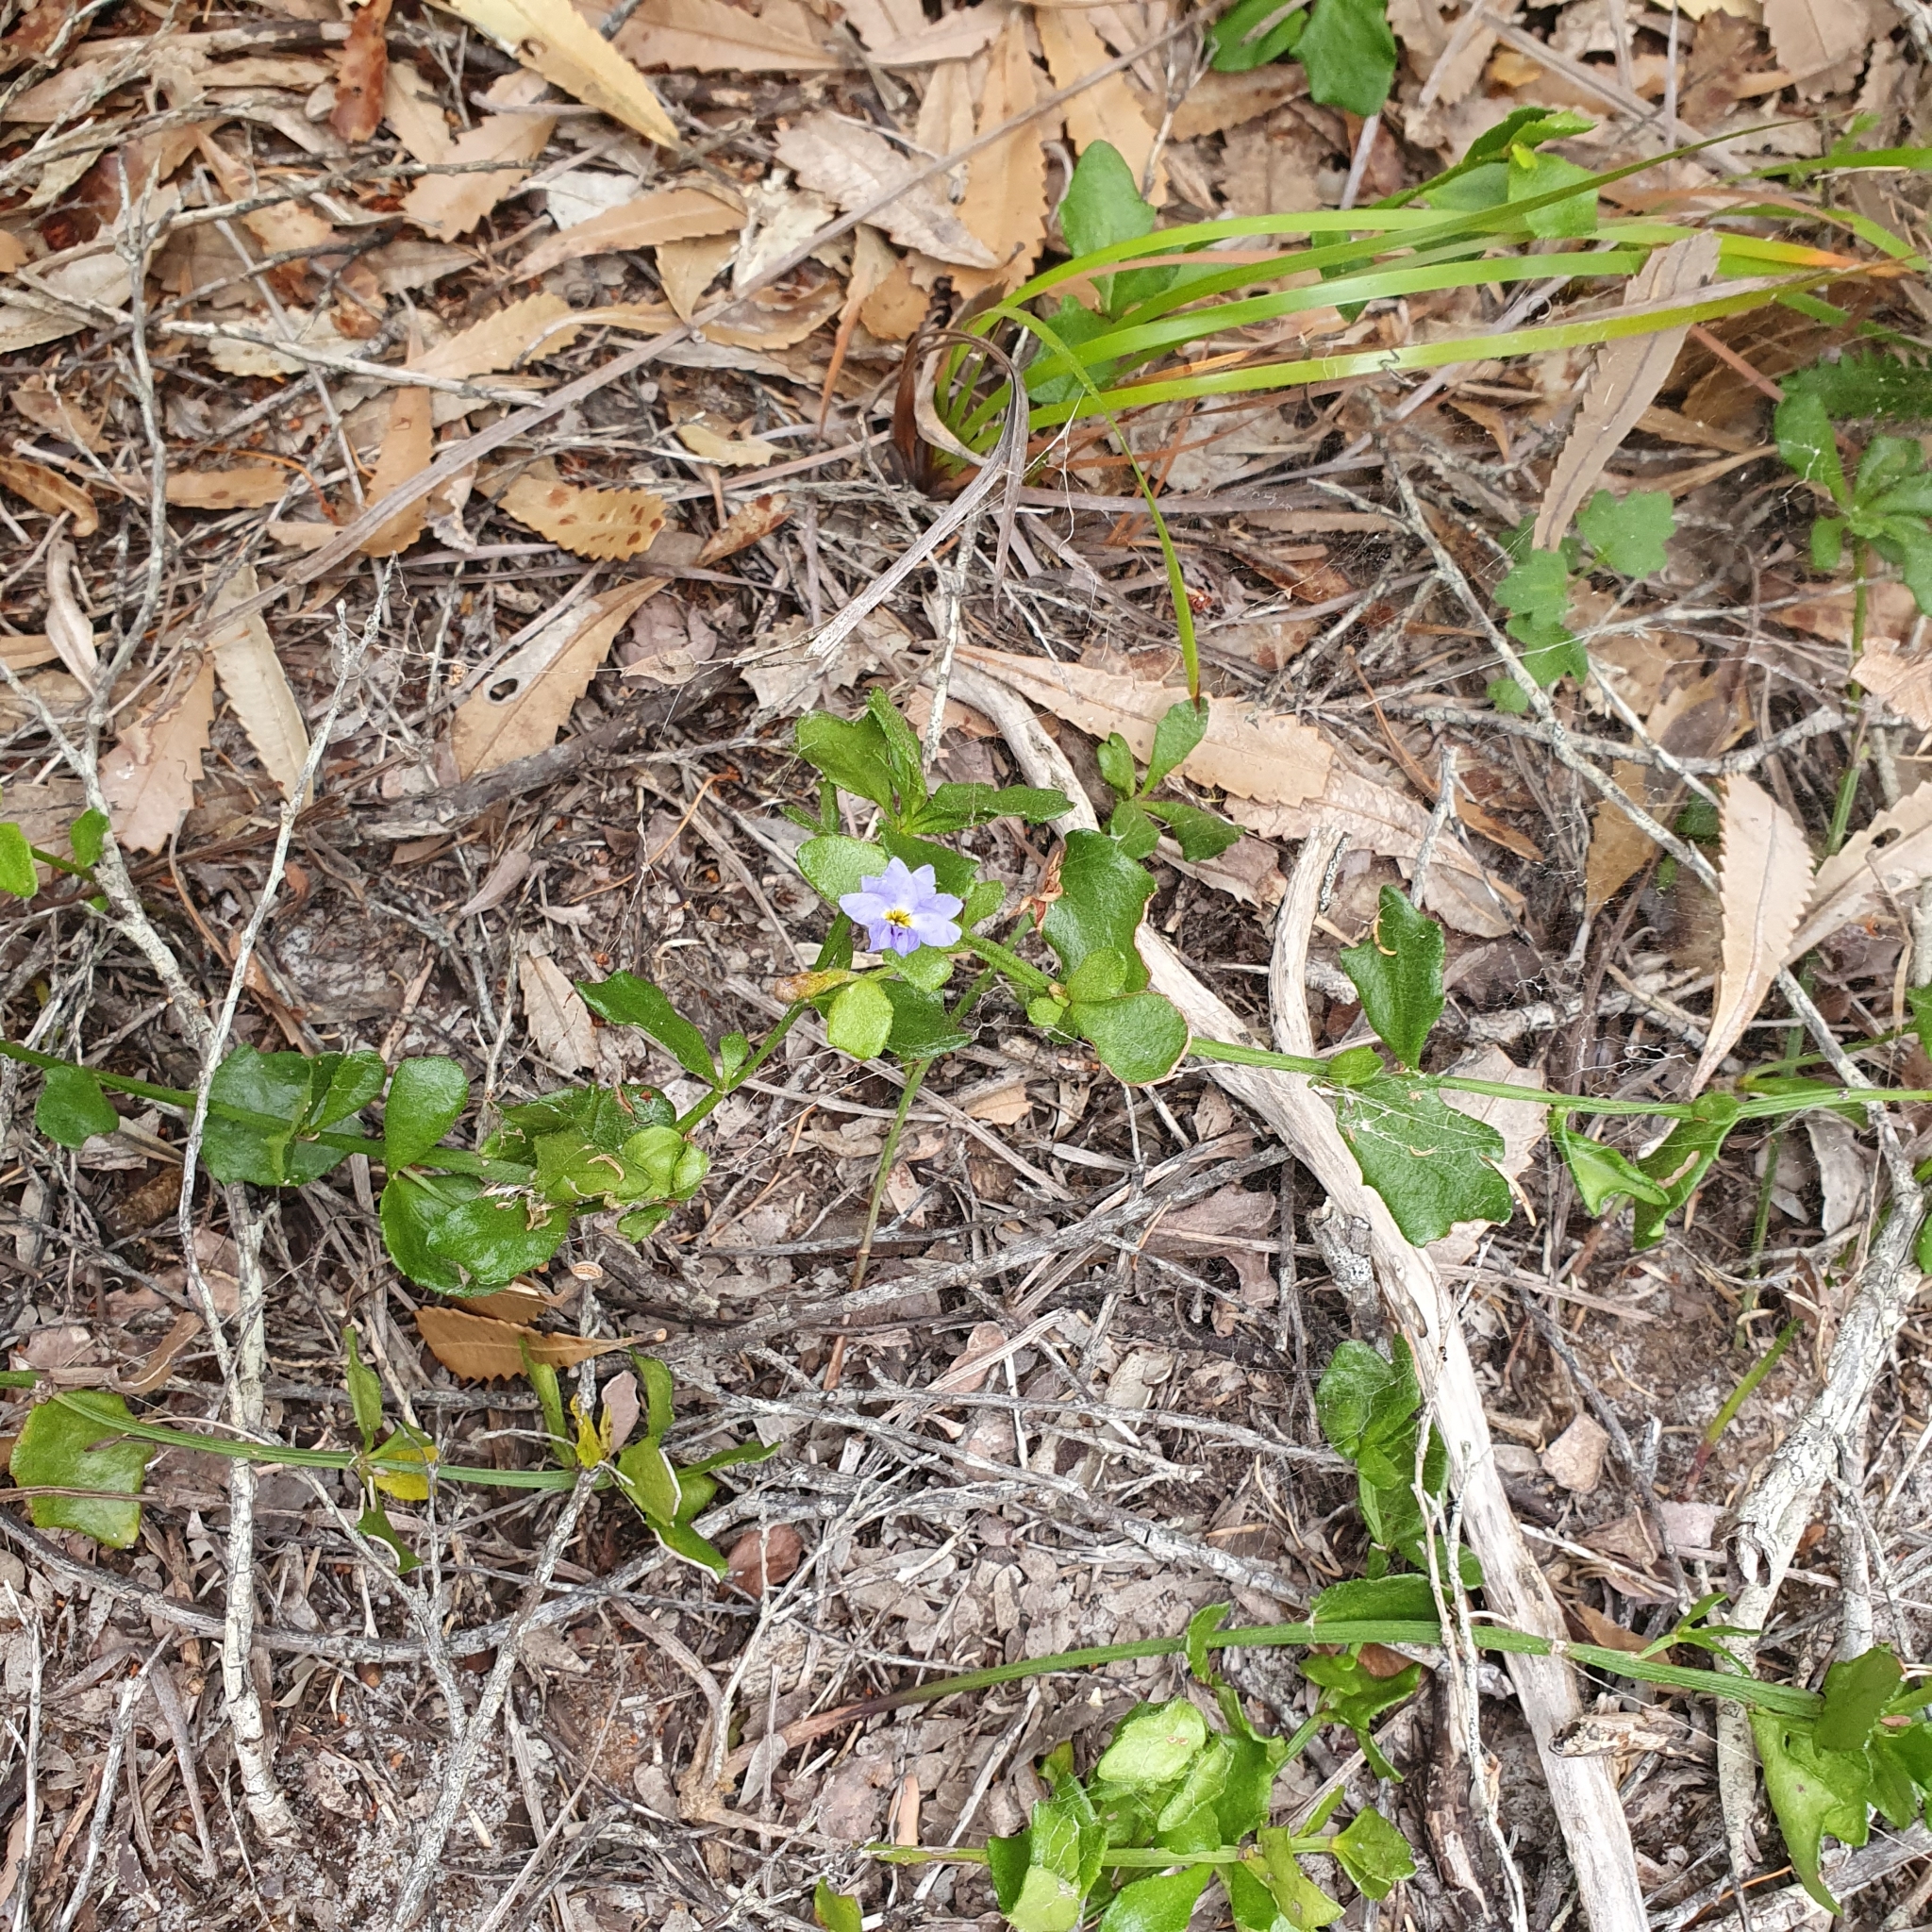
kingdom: Plantae
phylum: Tracheophyta
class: Magnoliopsida
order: Asterales
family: Goodeniaceae
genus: Dampiera
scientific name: Dampiera stricta
